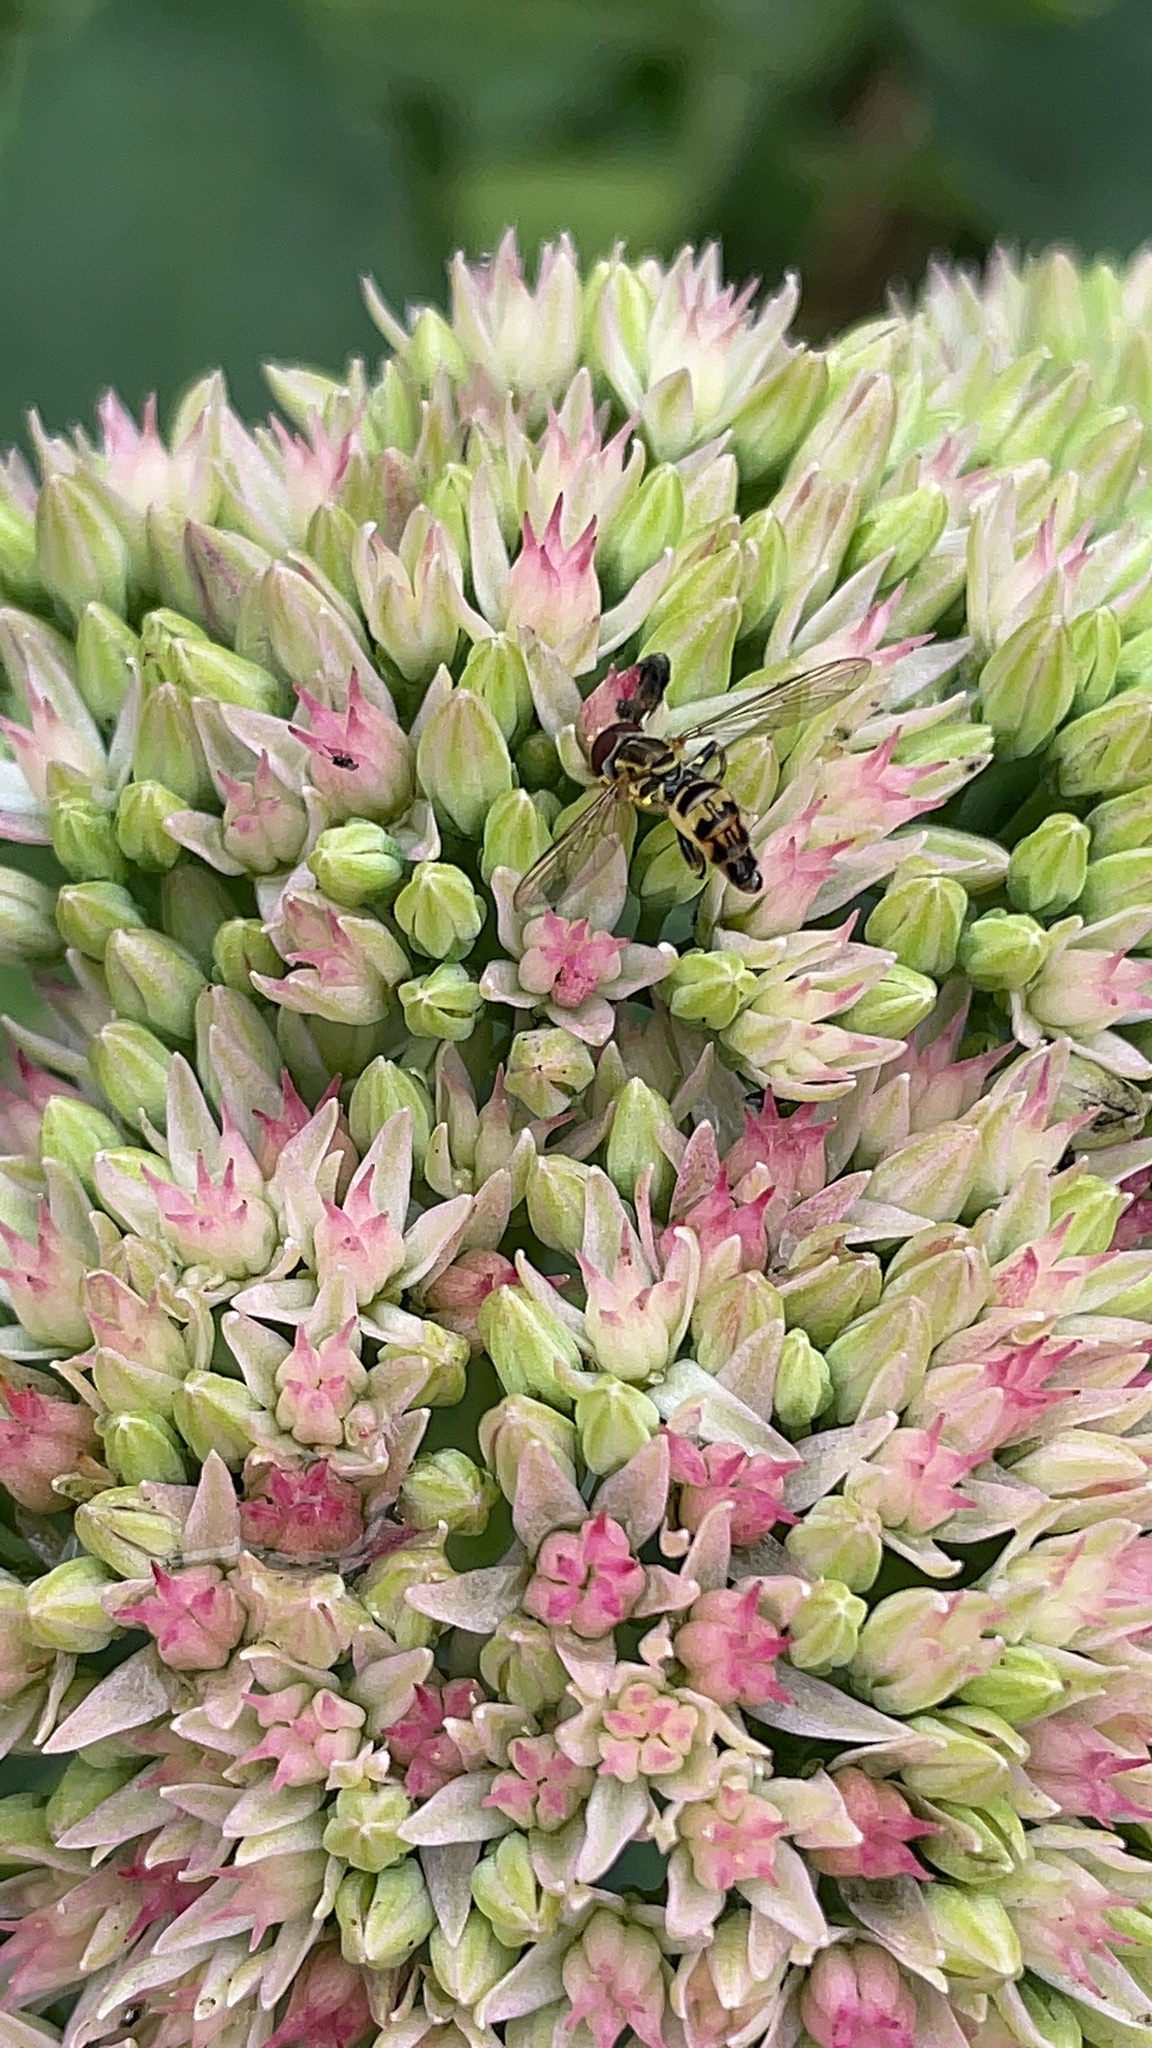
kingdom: Animalia
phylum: Arthropoda
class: Insecta
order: Diptera
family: Syrphidae
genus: Toxomerus
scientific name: Toxomerus geminatus
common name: Eastern calligrapher
